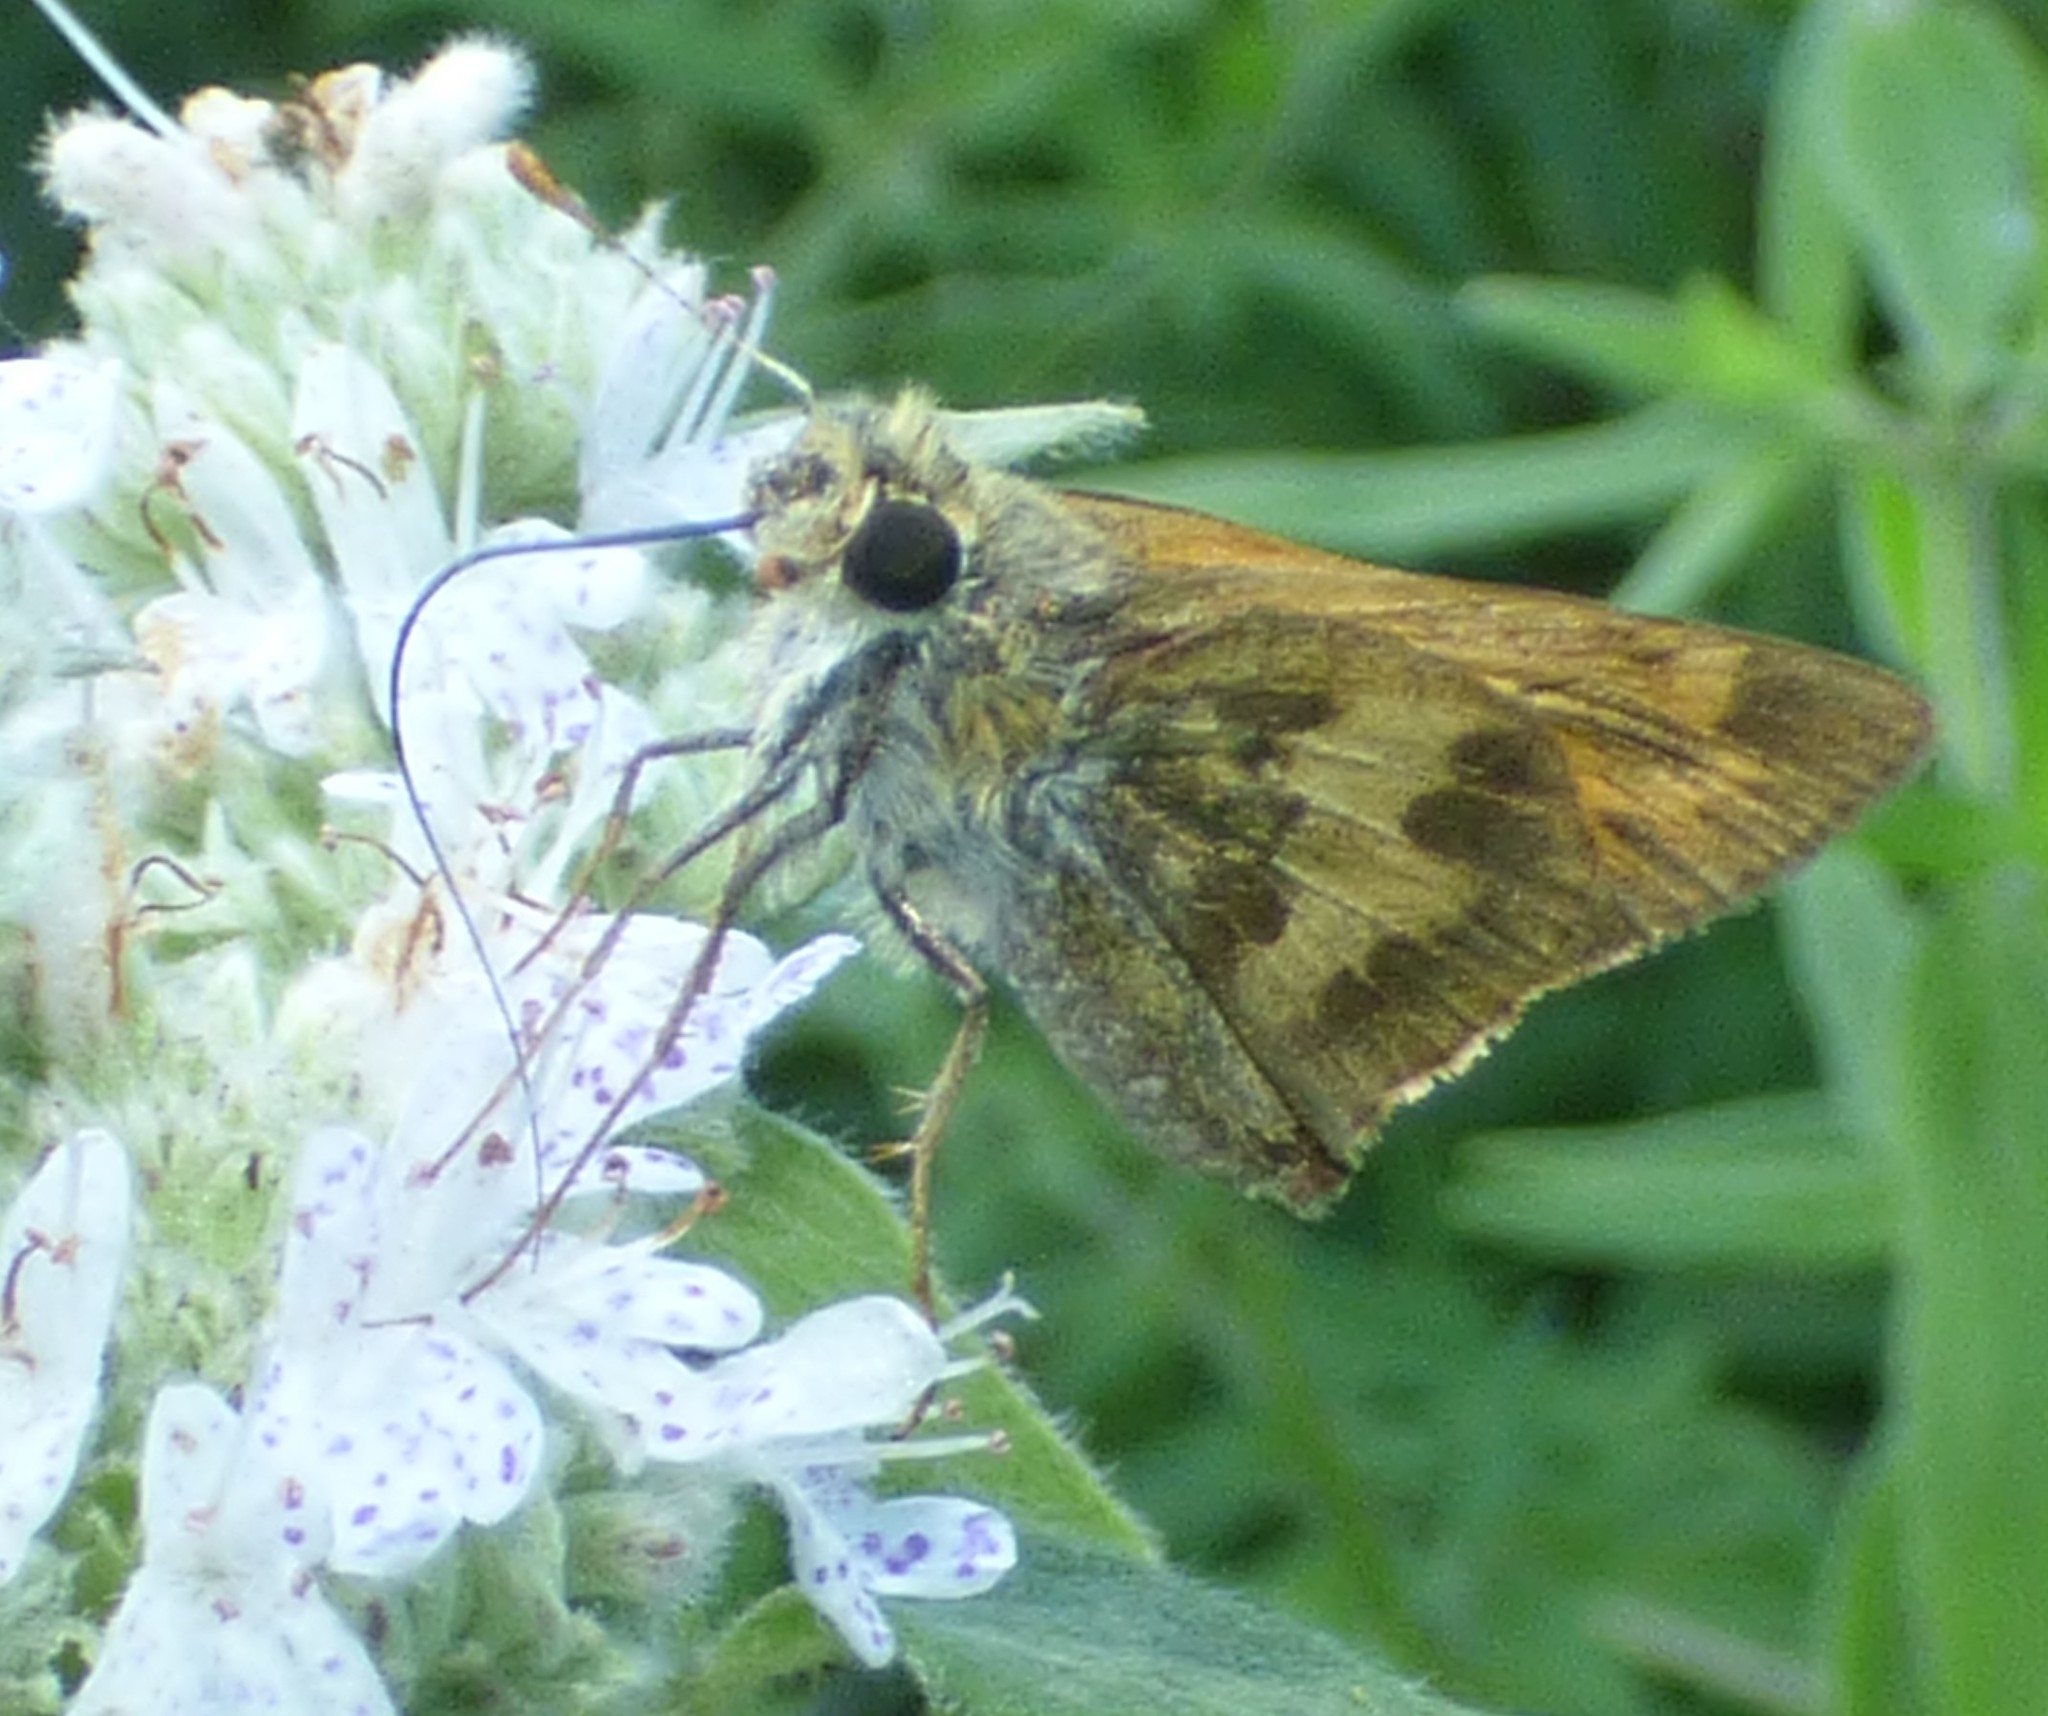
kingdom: Animalia
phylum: Arthropoda
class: Insecta
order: Lepidoptera
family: Hesperiidae
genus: Polites
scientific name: Polites vibex
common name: Whirlabout
